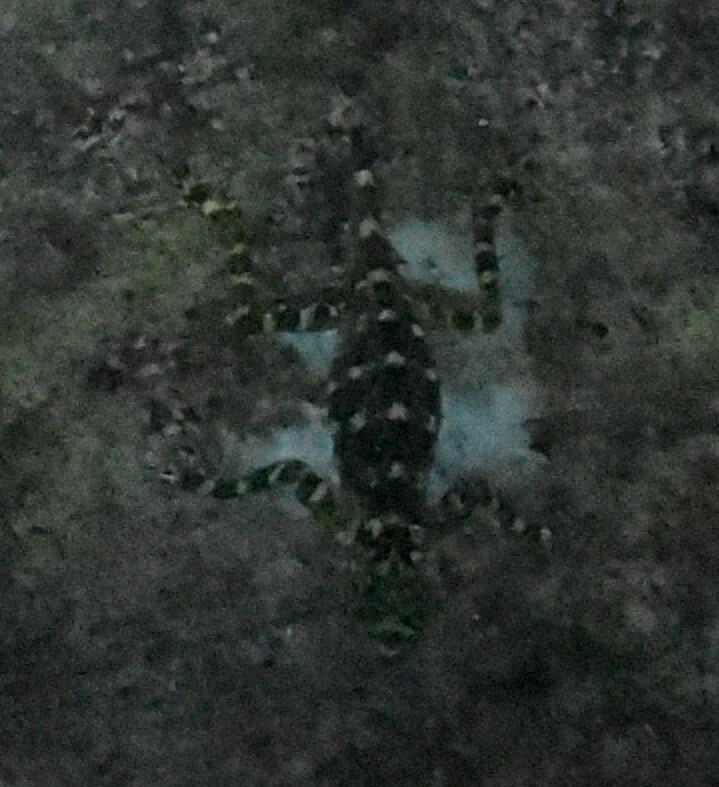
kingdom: Animalia
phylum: Chordata
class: Squamata
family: Tropiduridae
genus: Plica
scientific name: Plica plica
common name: Tree runner
